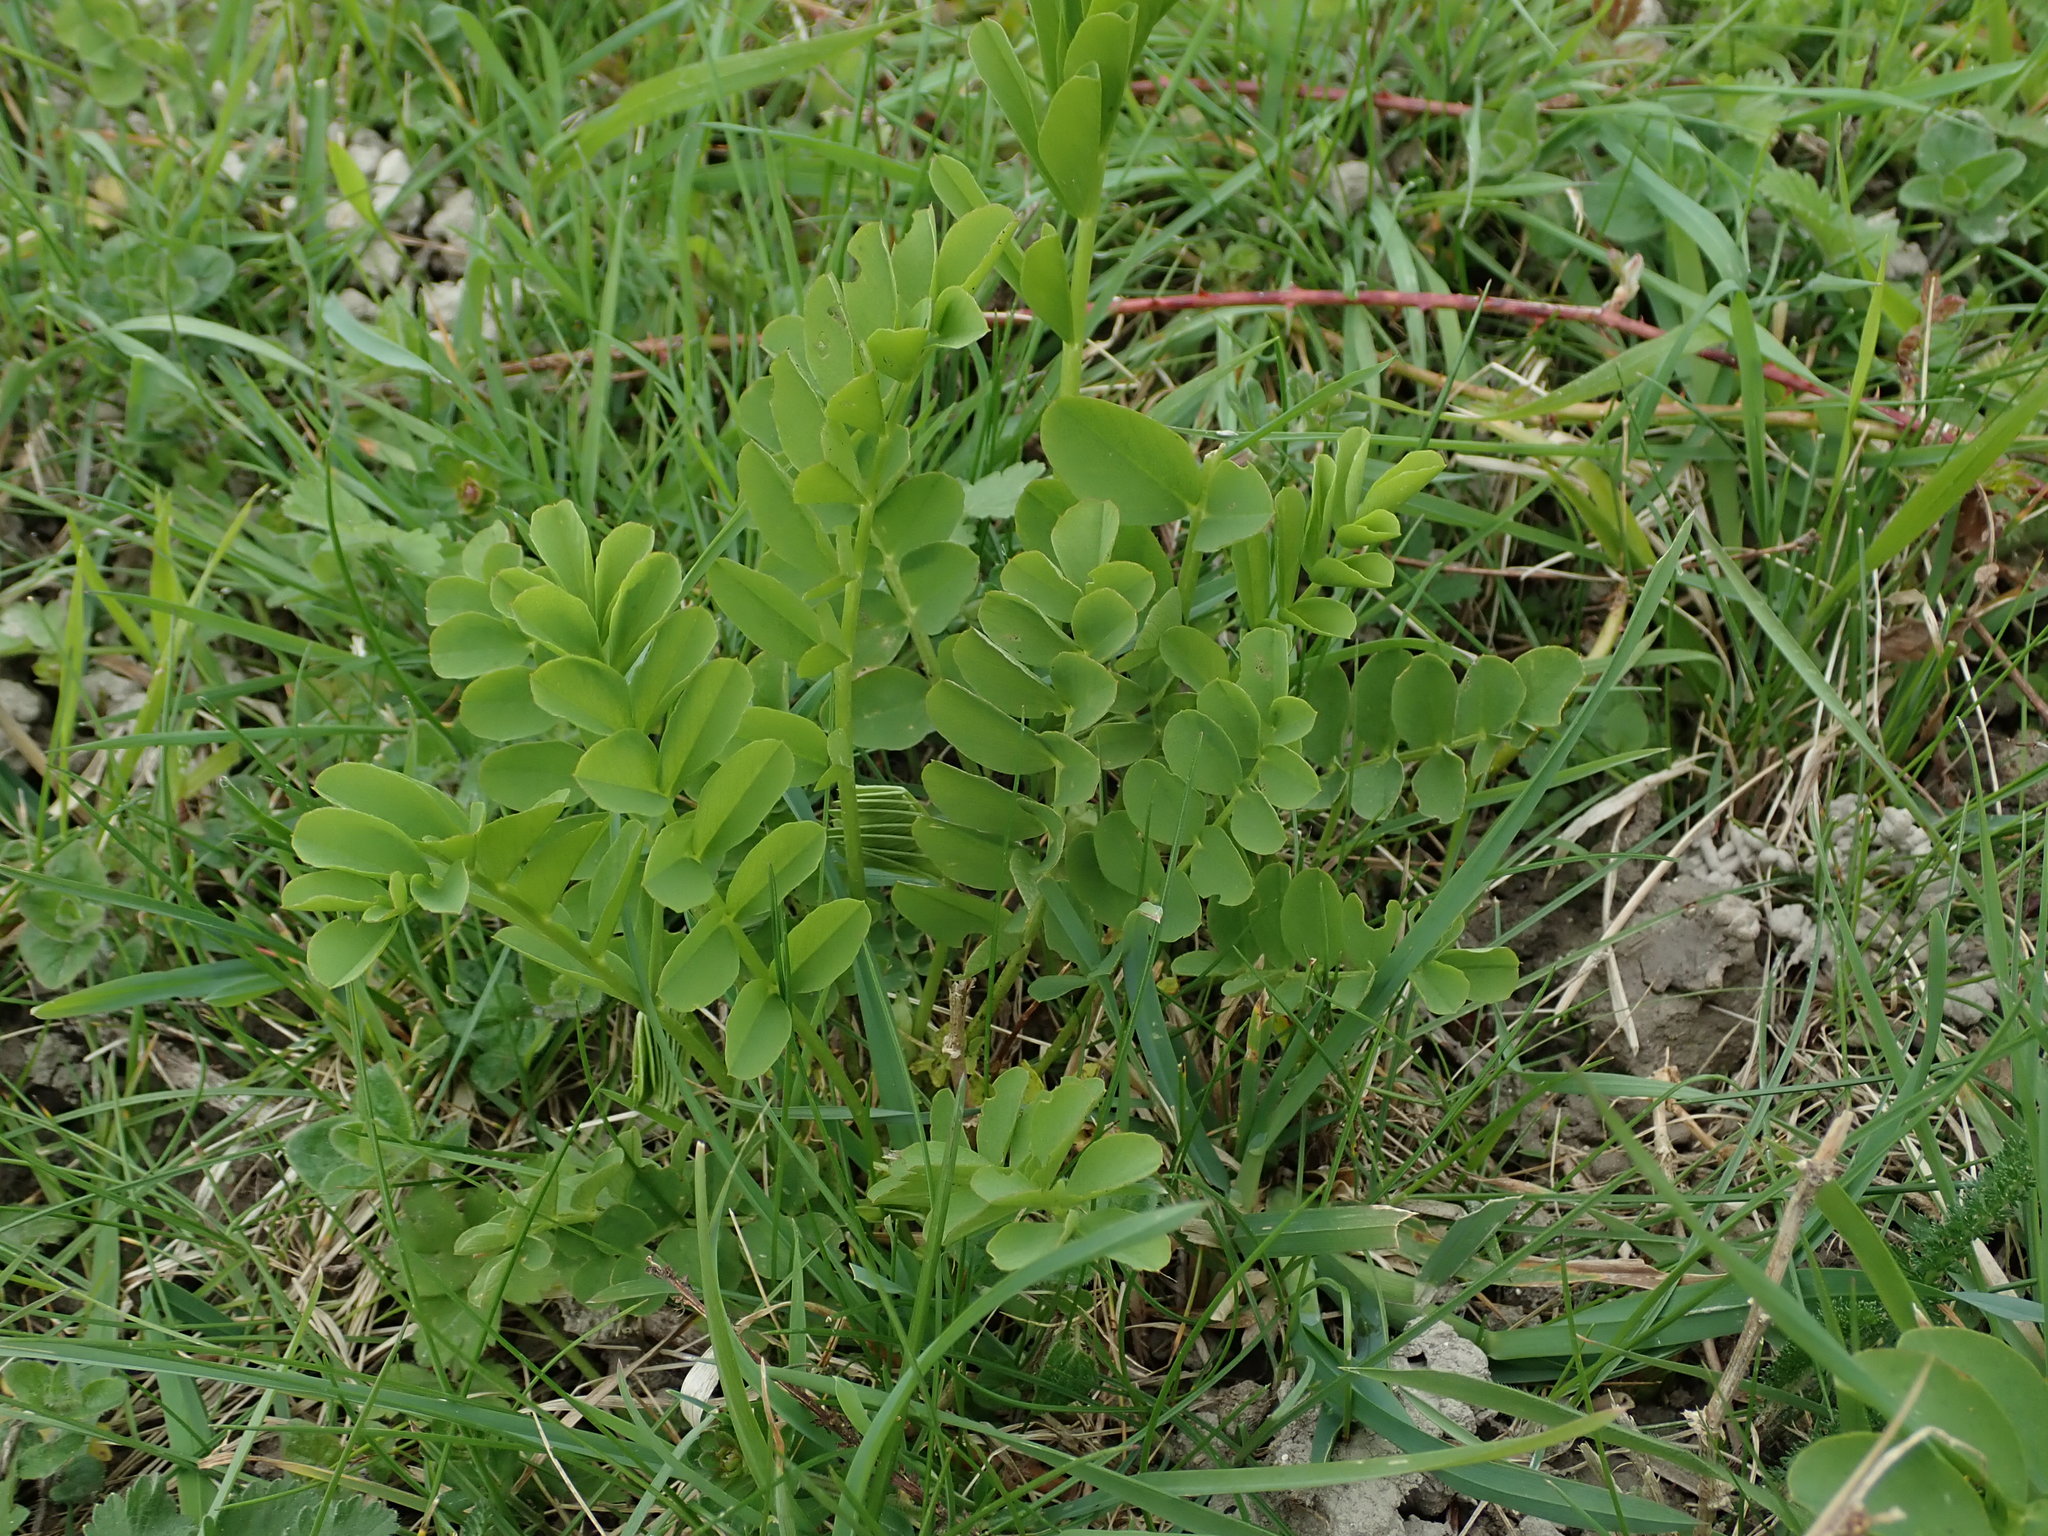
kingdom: Plantae
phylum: Tracheophyta
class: Magnoliopsida
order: Fabales
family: Fabaceae
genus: Galega
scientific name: Galega officinalis
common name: Goat's-rue
